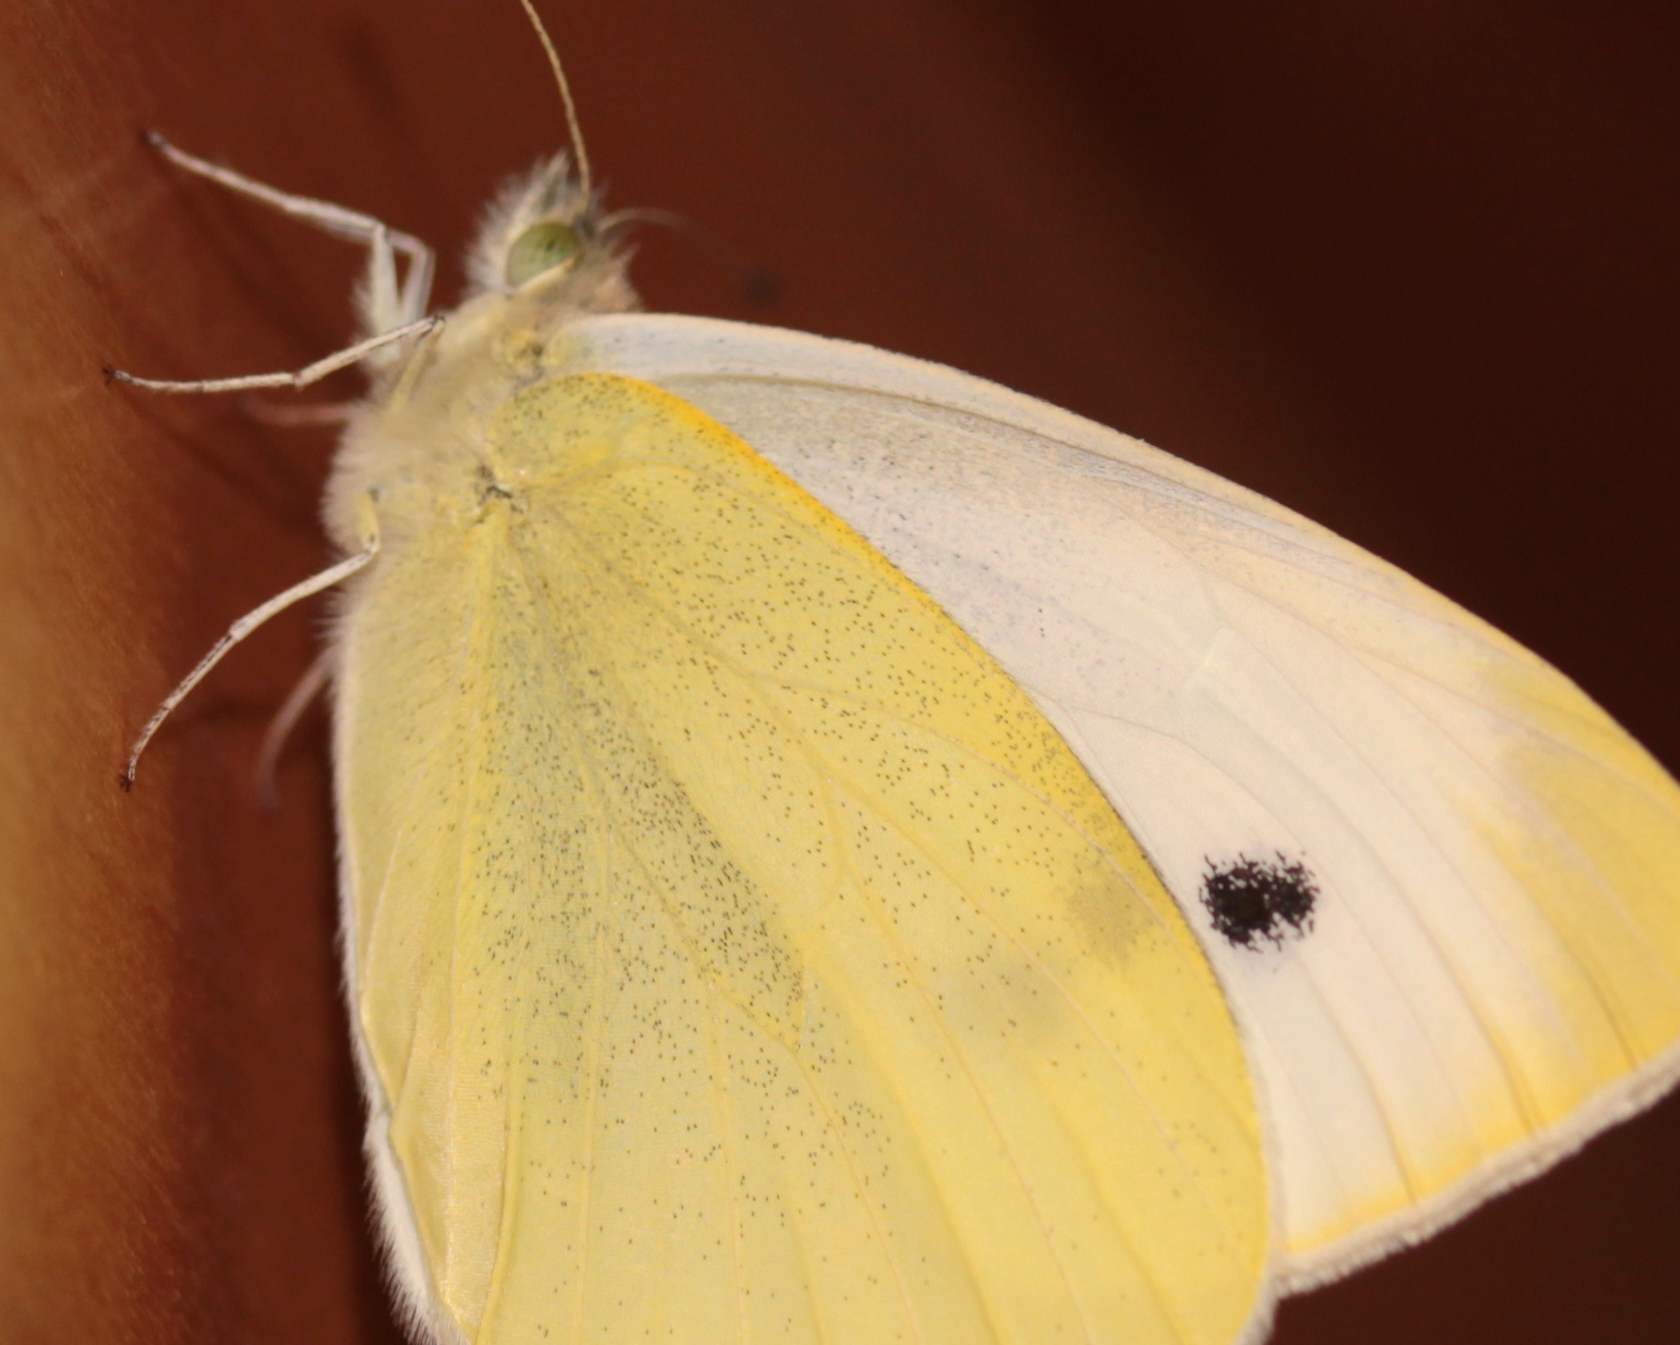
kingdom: Animalia
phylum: Arthropoda
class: Insecta
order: Lepidoptera
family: Pieridae
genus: Pieris
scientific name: Pieris rapae
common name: Small white
